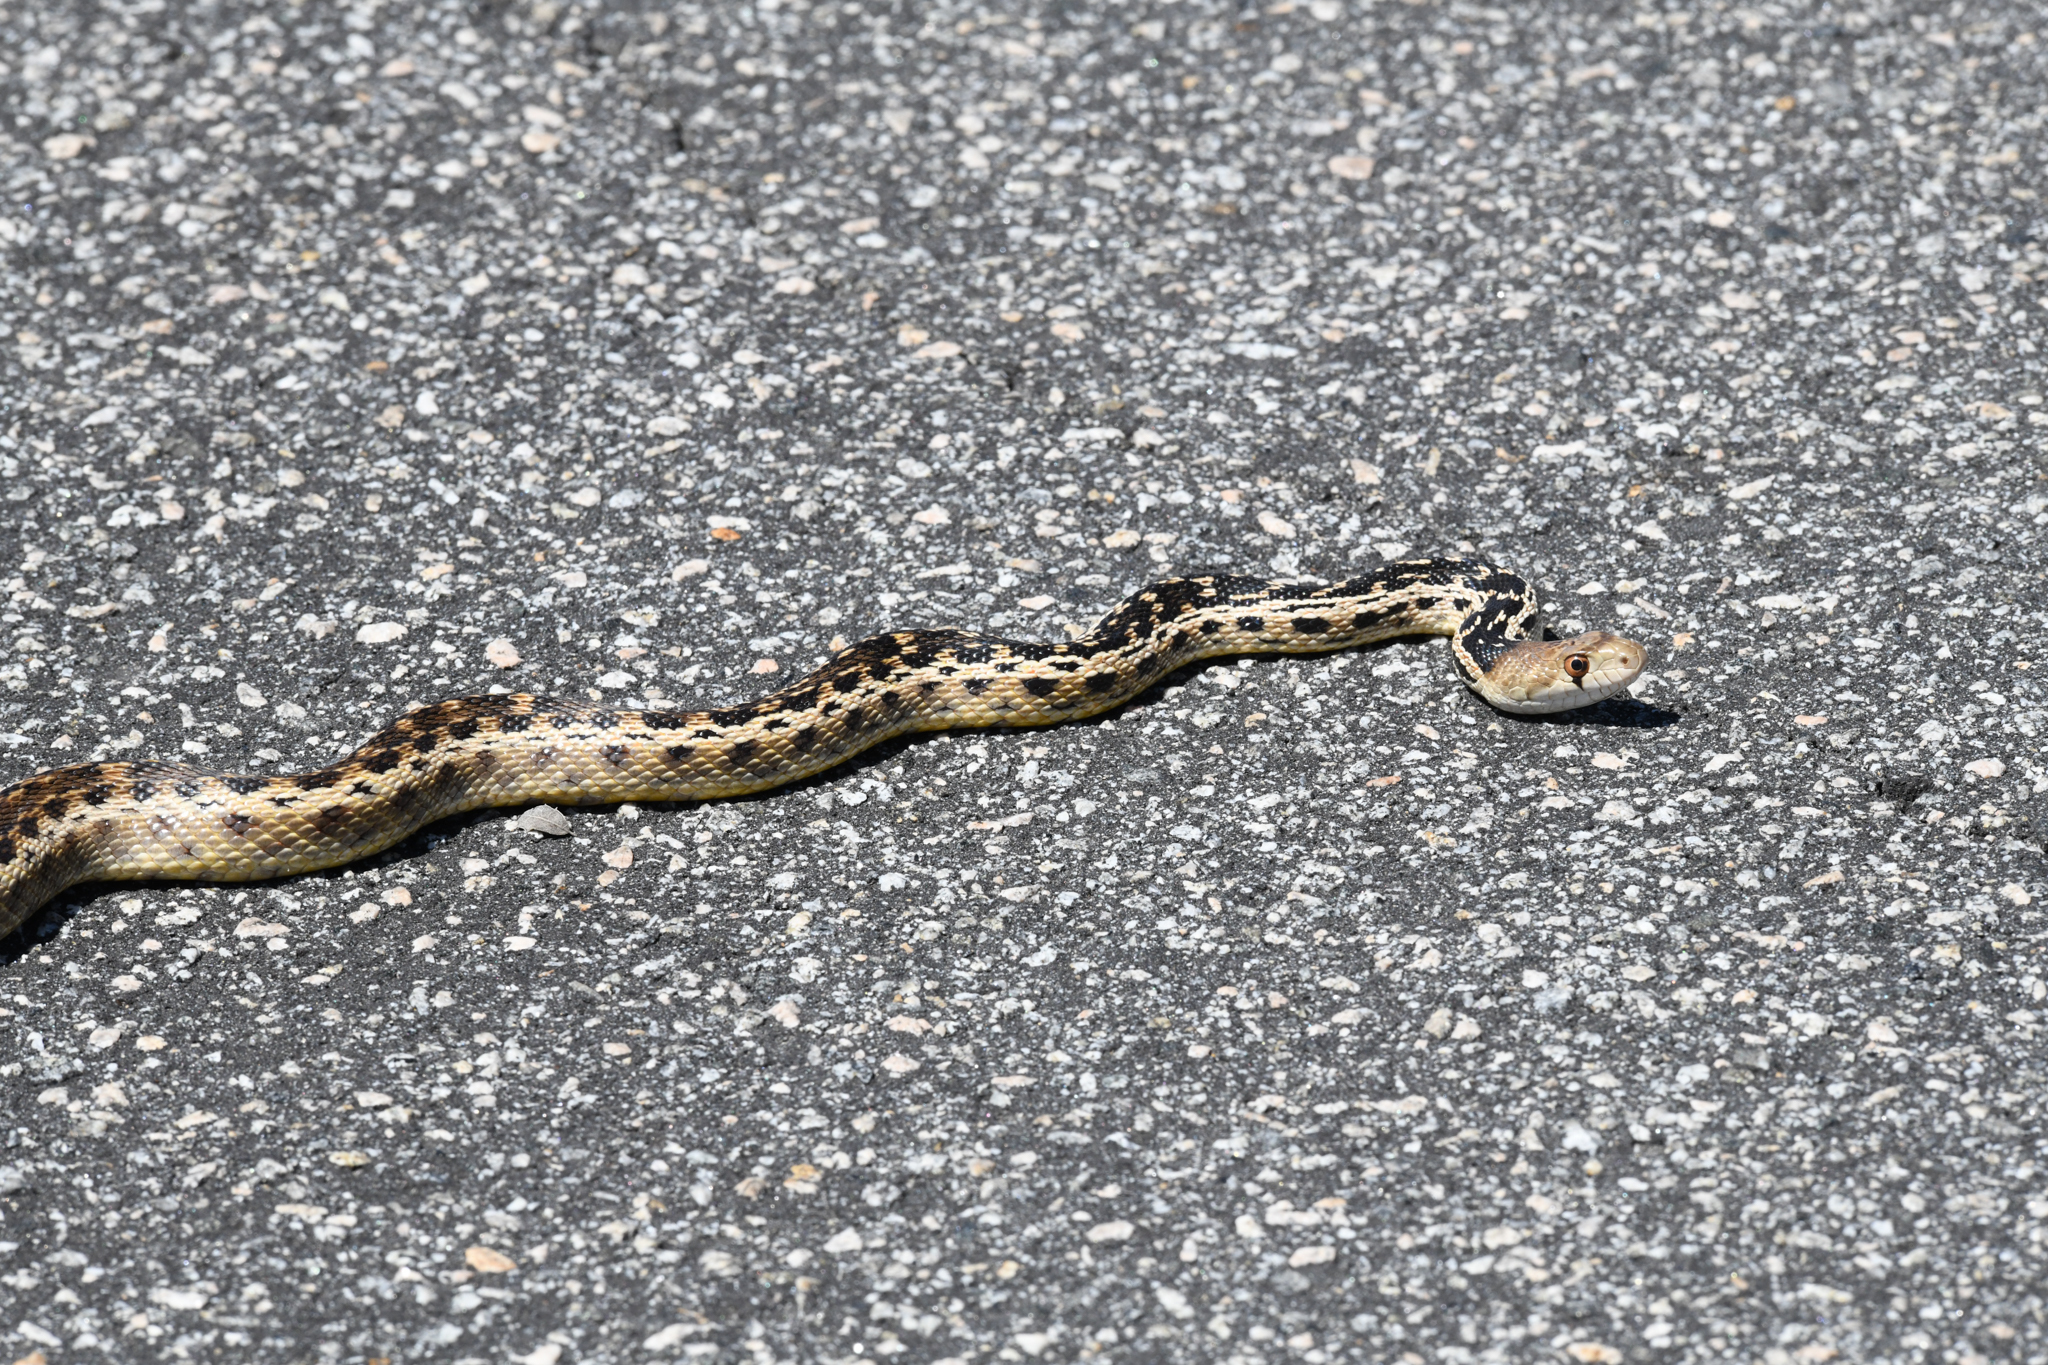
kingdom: Animalia
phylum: Chordata
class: Squamata
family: Colubridae
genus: Pituophis
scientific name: Pituophis catenifer
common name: Gopher snake
